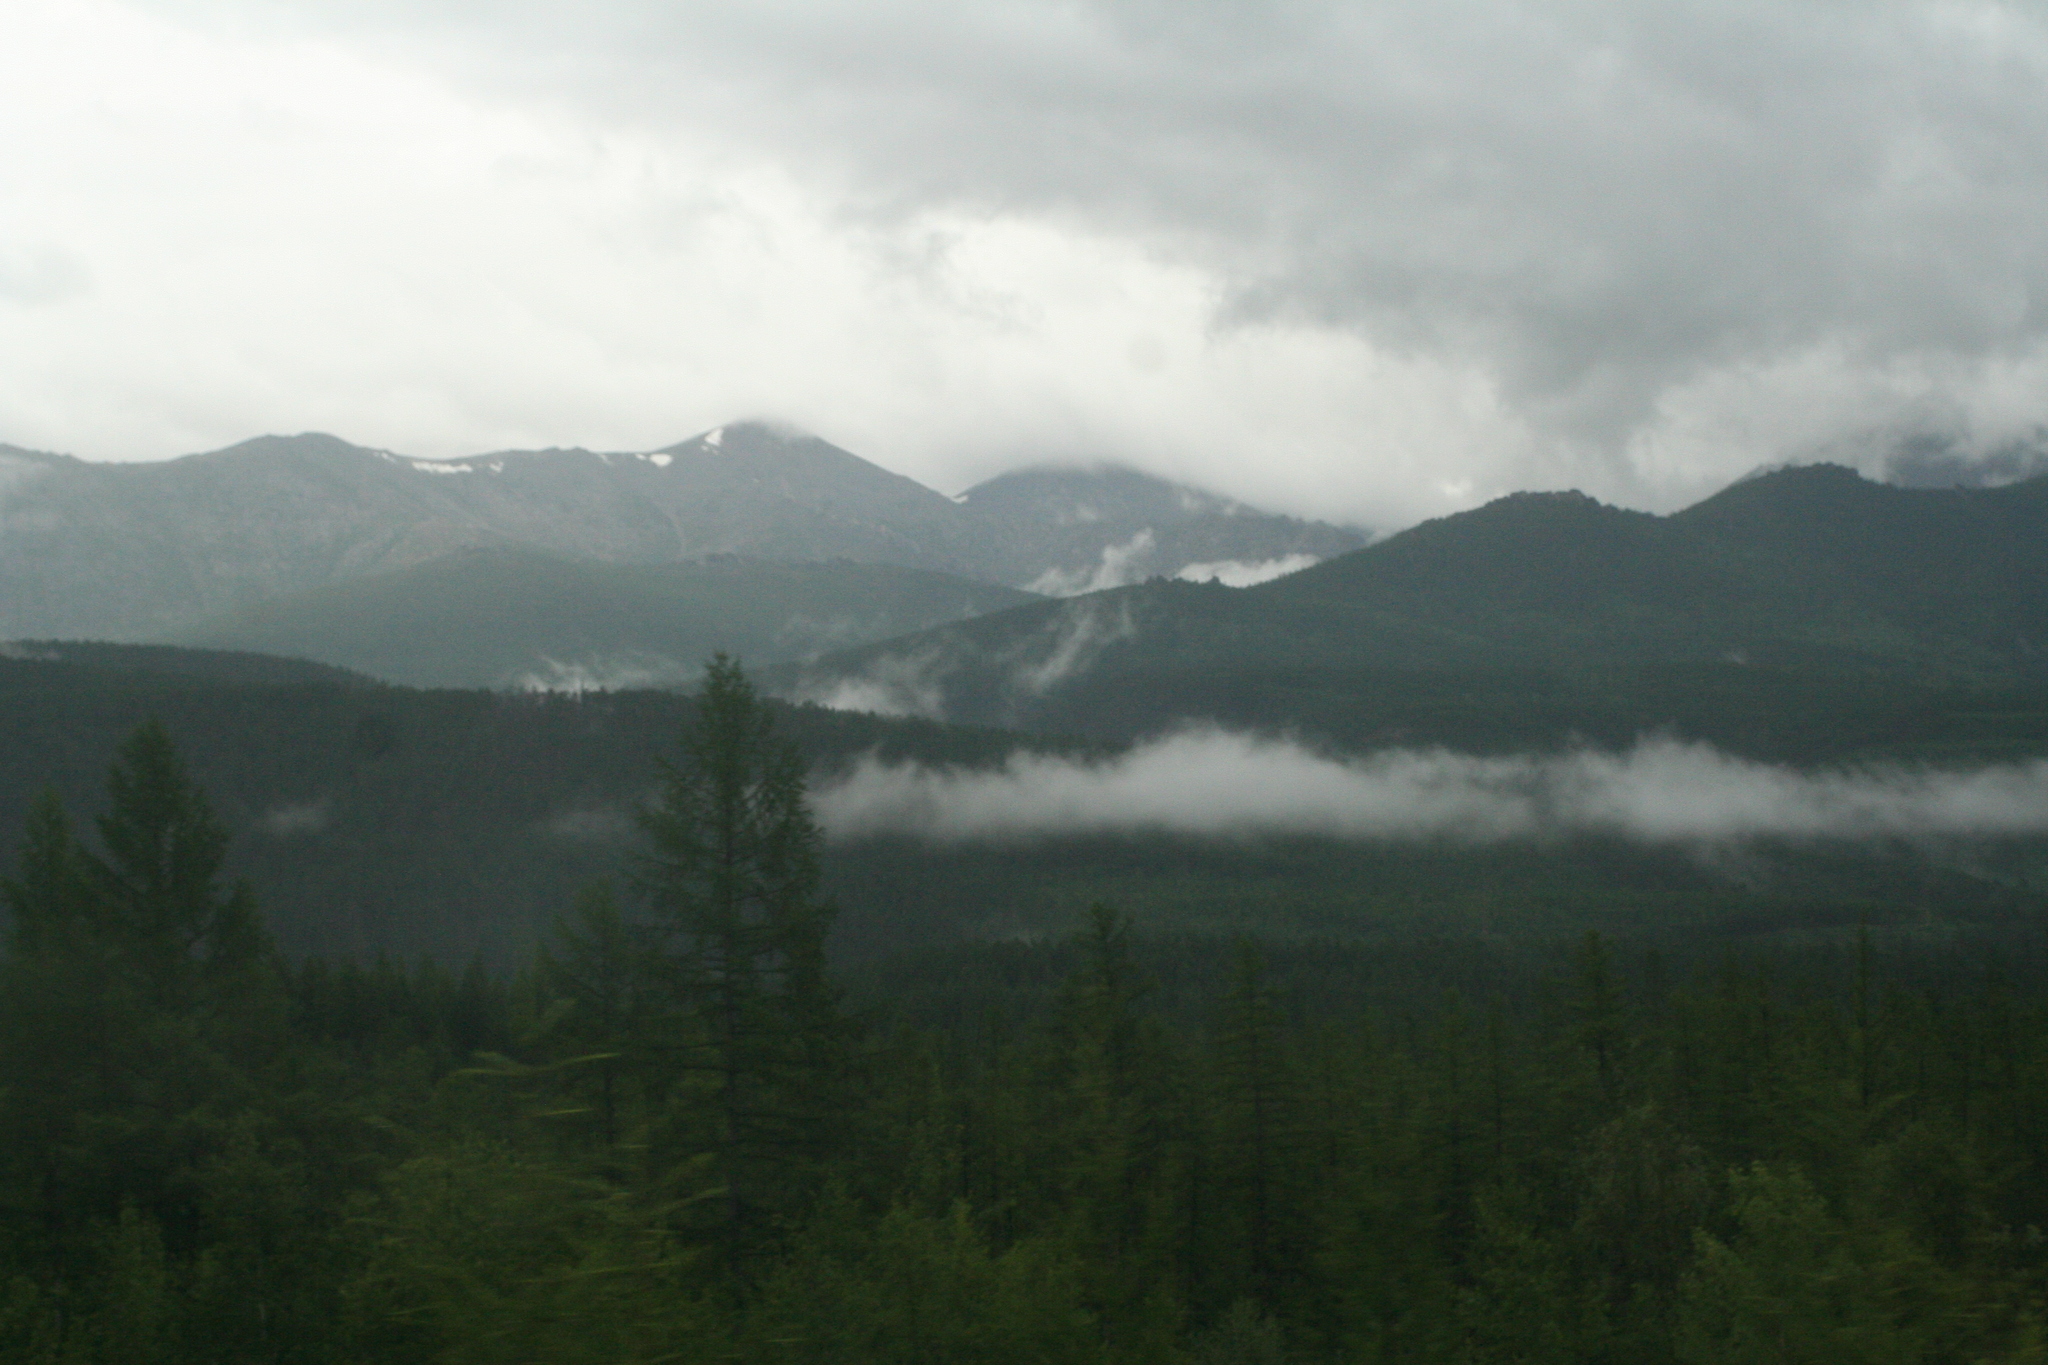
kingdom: Plantae
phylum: Tracheophyta
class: Pinopsida
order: Pinales
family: Pinaceae
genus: Larix
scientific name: Larix gmelinii
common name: Dahurian larch
